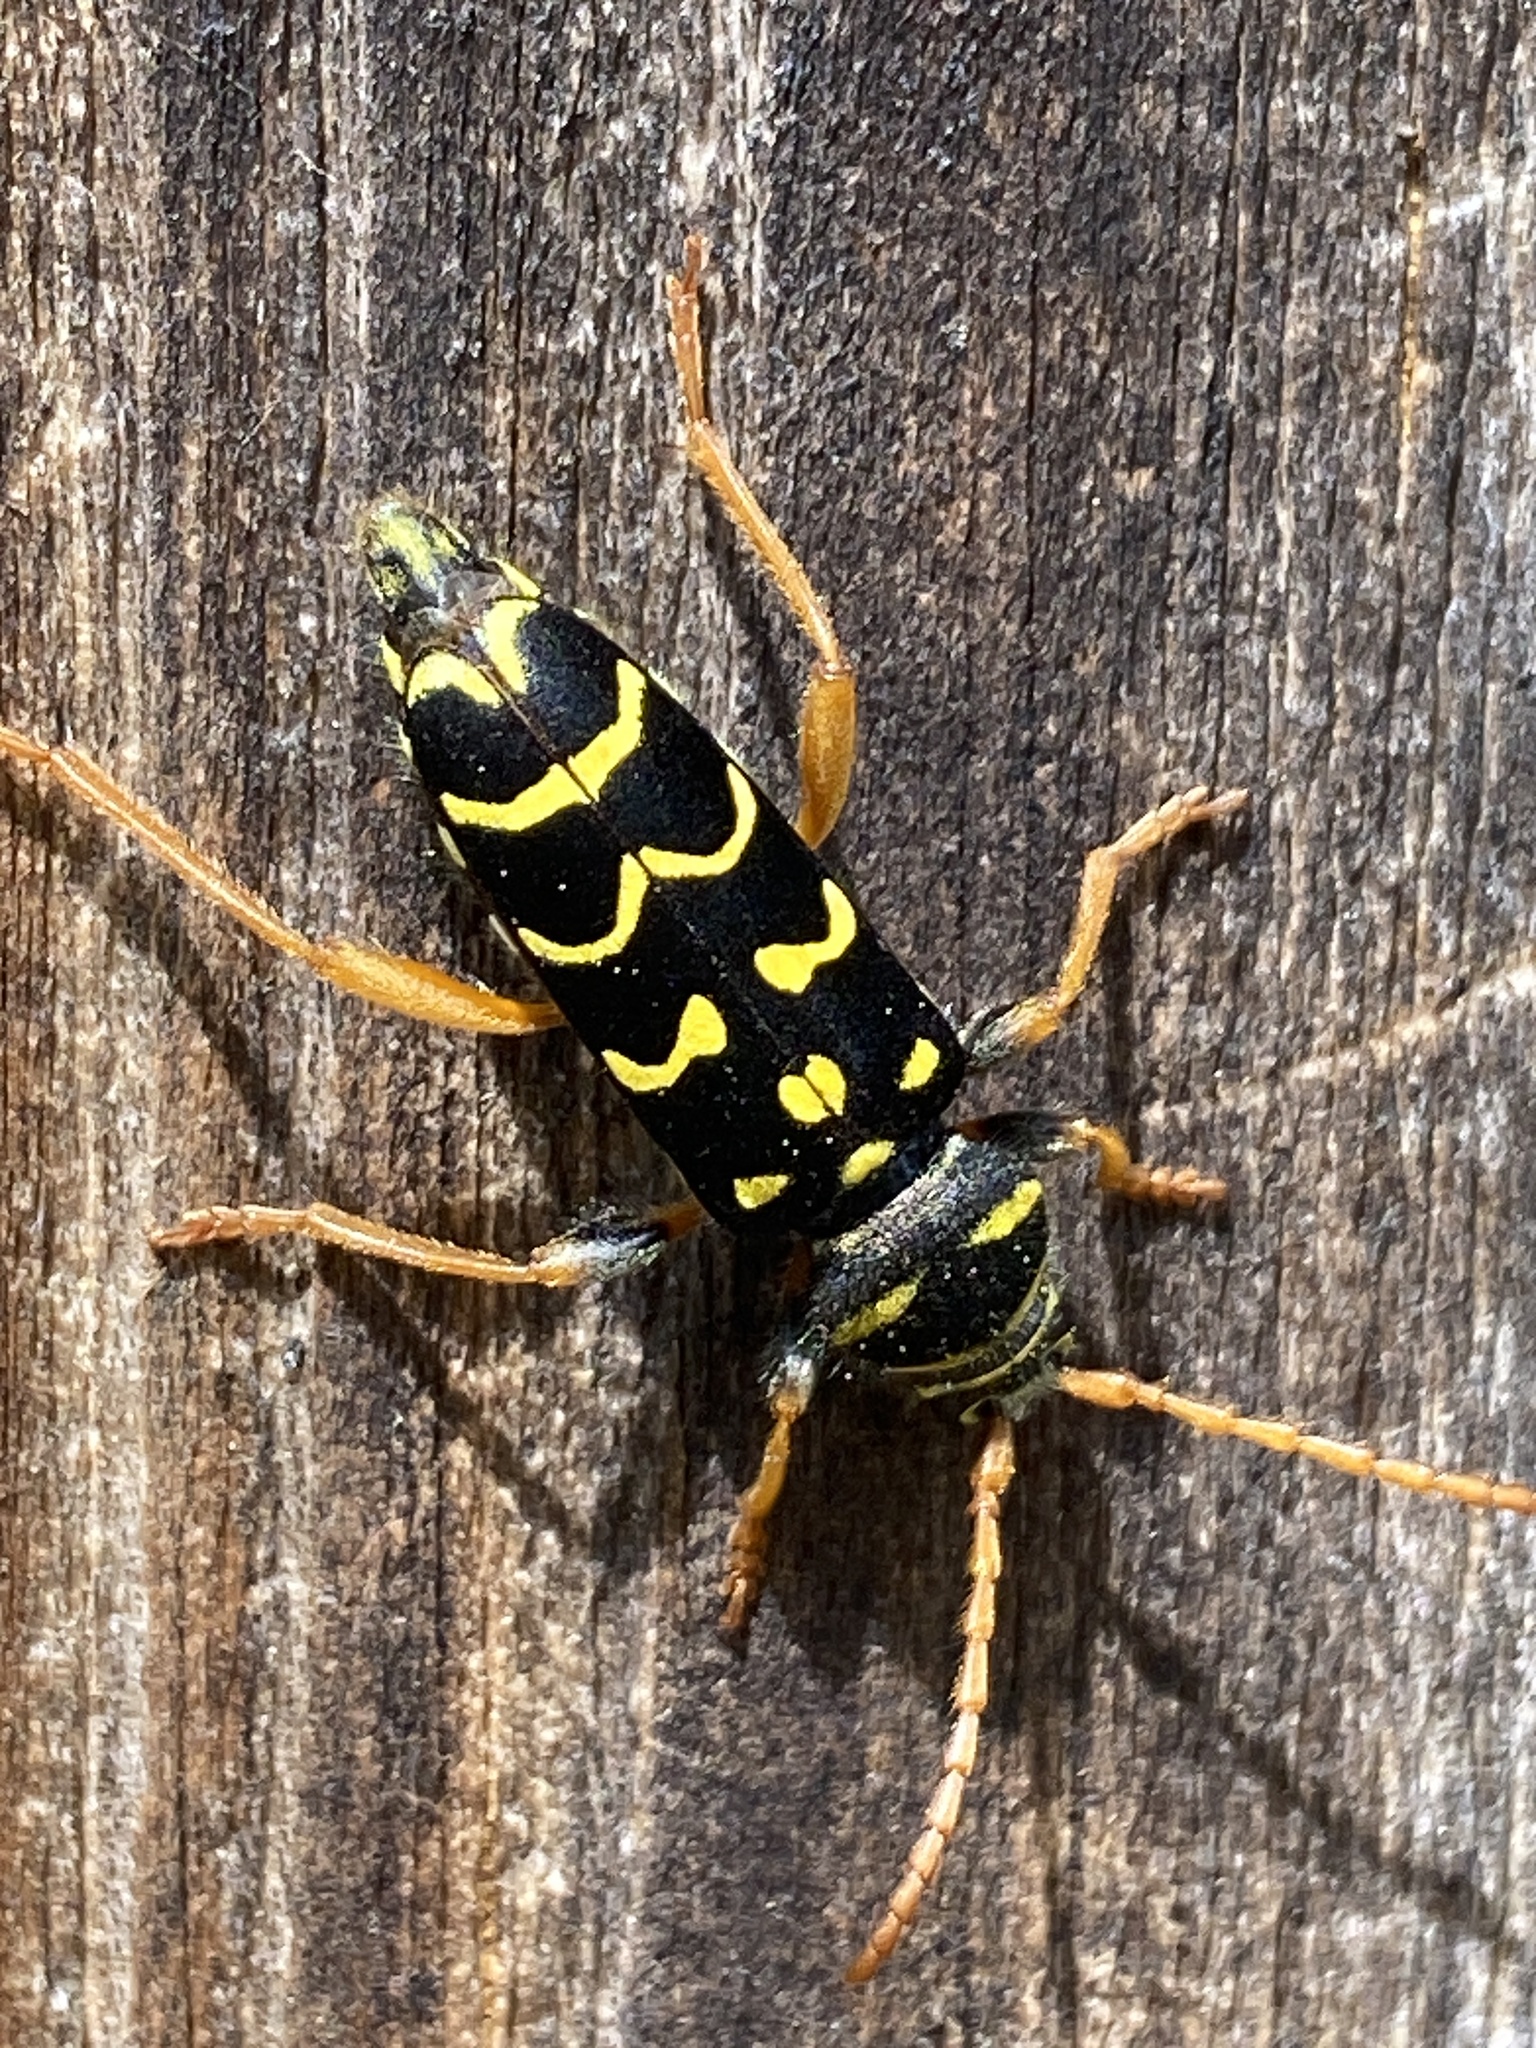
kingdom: Animalia
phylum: Arthropoda
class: Insecta
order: Coleoptera
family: Cerambycidae
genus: Plagionotus
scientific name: Plagionotus arcuatus
